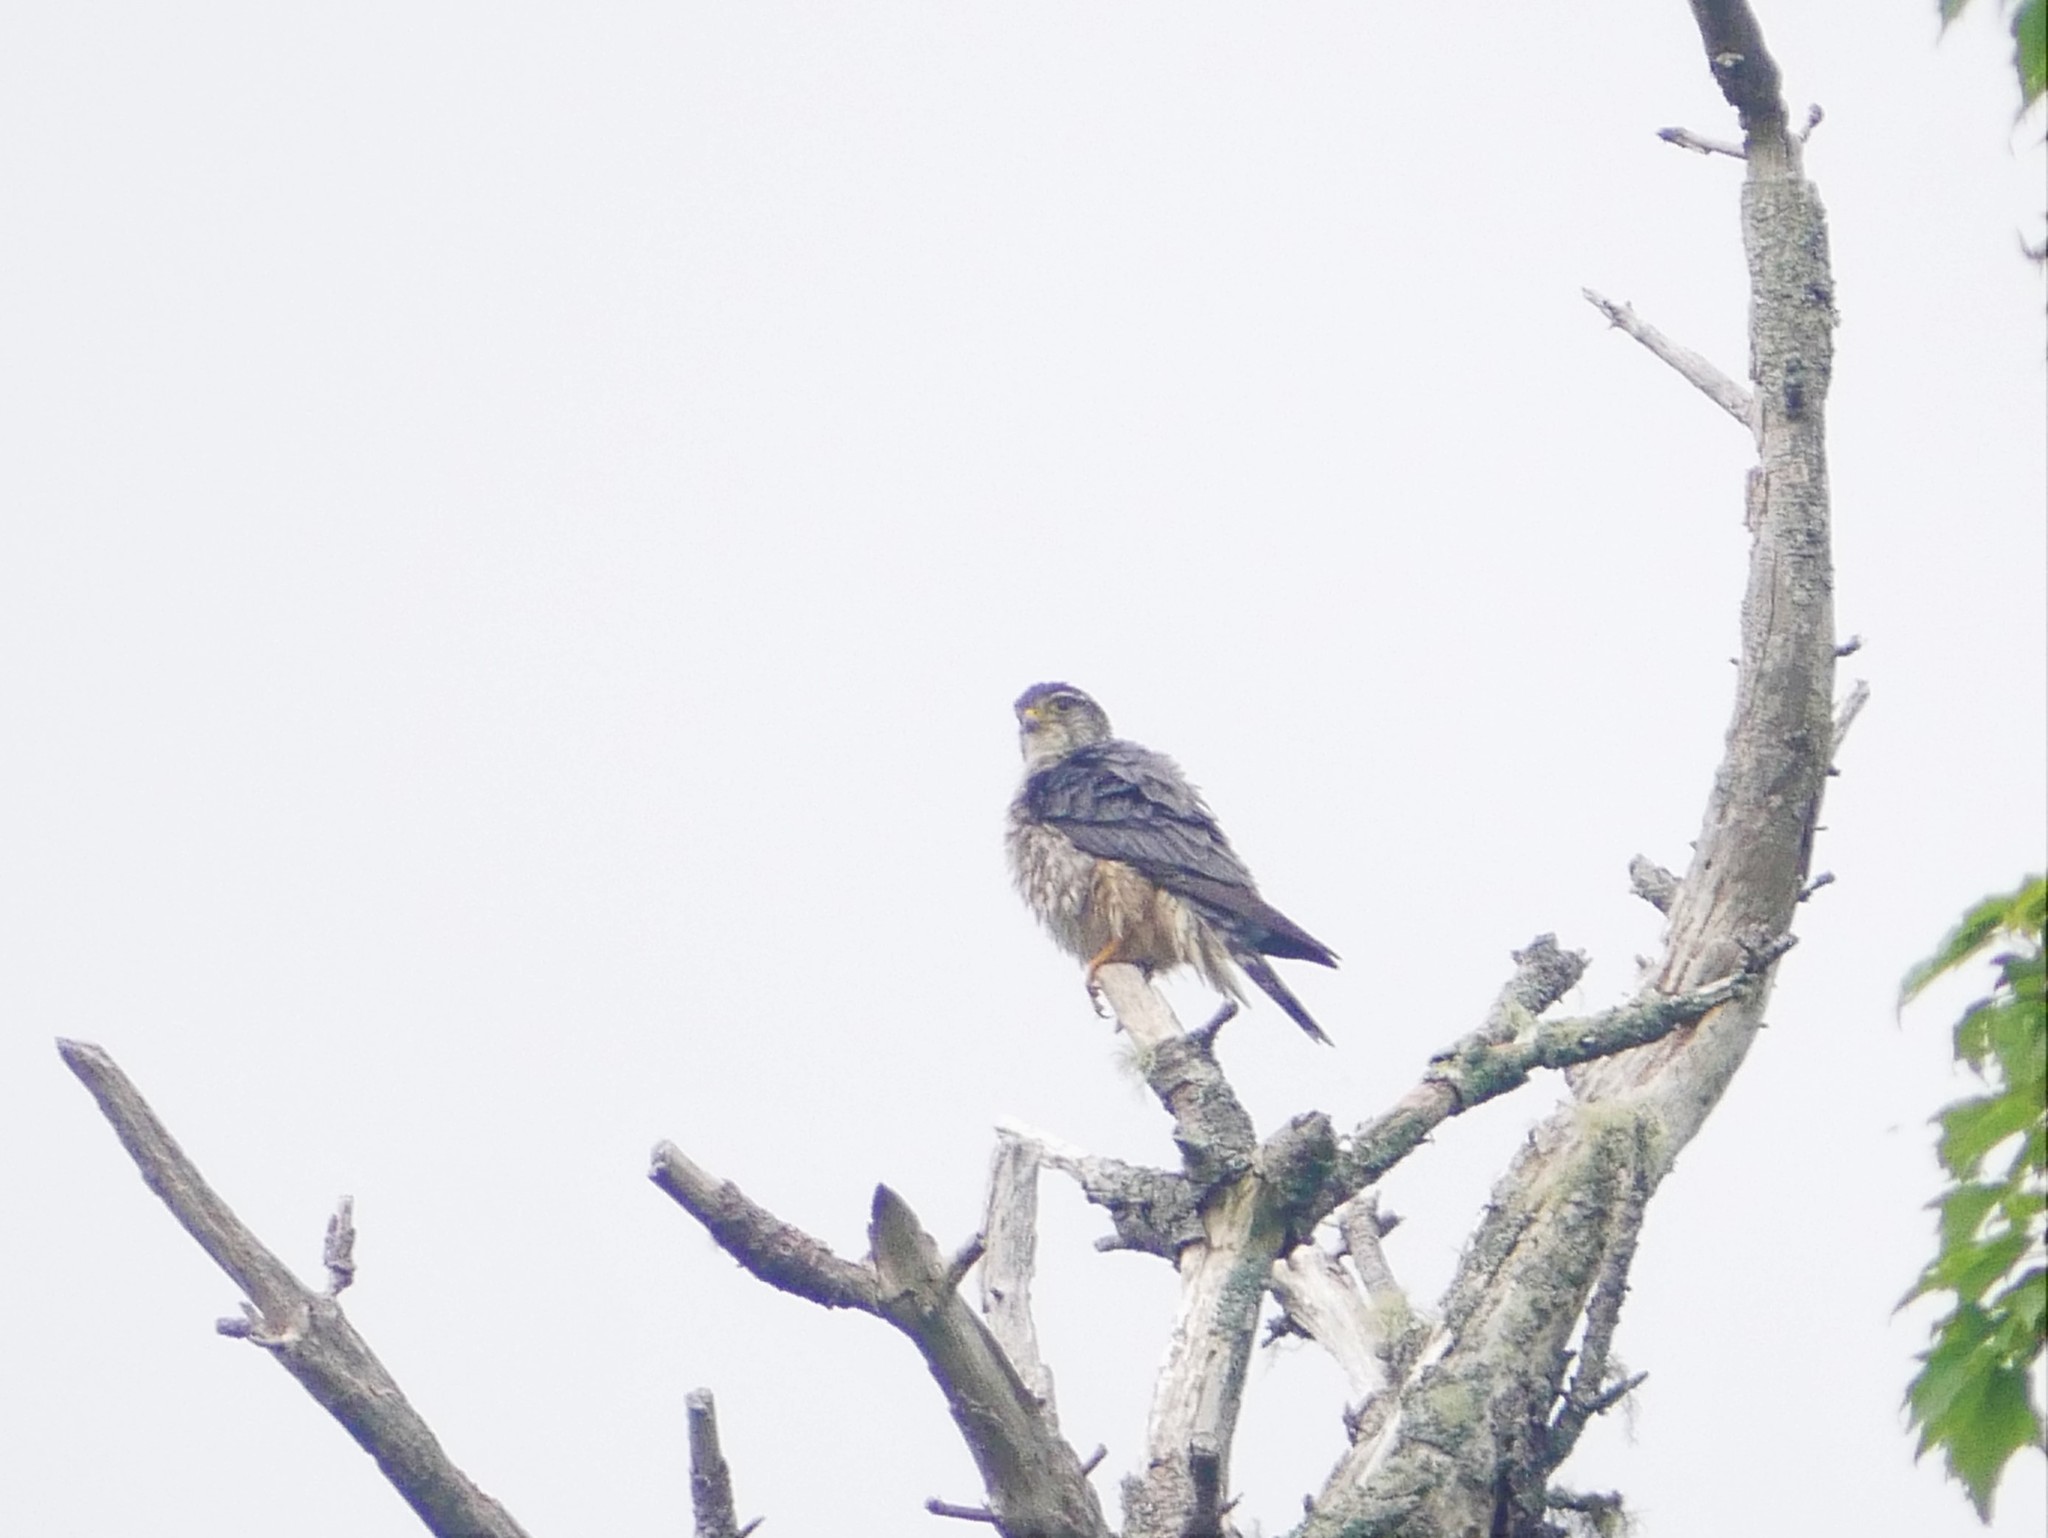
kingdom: Animalia
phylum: Chordata
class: Aves
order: Falconiformes
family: Falconidae
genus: Falco
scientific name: Falco columbarius
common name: Merlin
